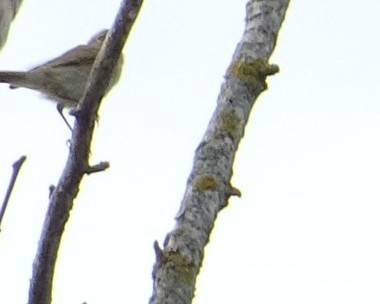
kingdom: Animalia
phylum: Chordata
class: Aves
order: Passeriformes
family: Phylloscopidae
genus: Phylloscopus
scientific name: Phylloscopus collybita
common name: Common chiffchaff
